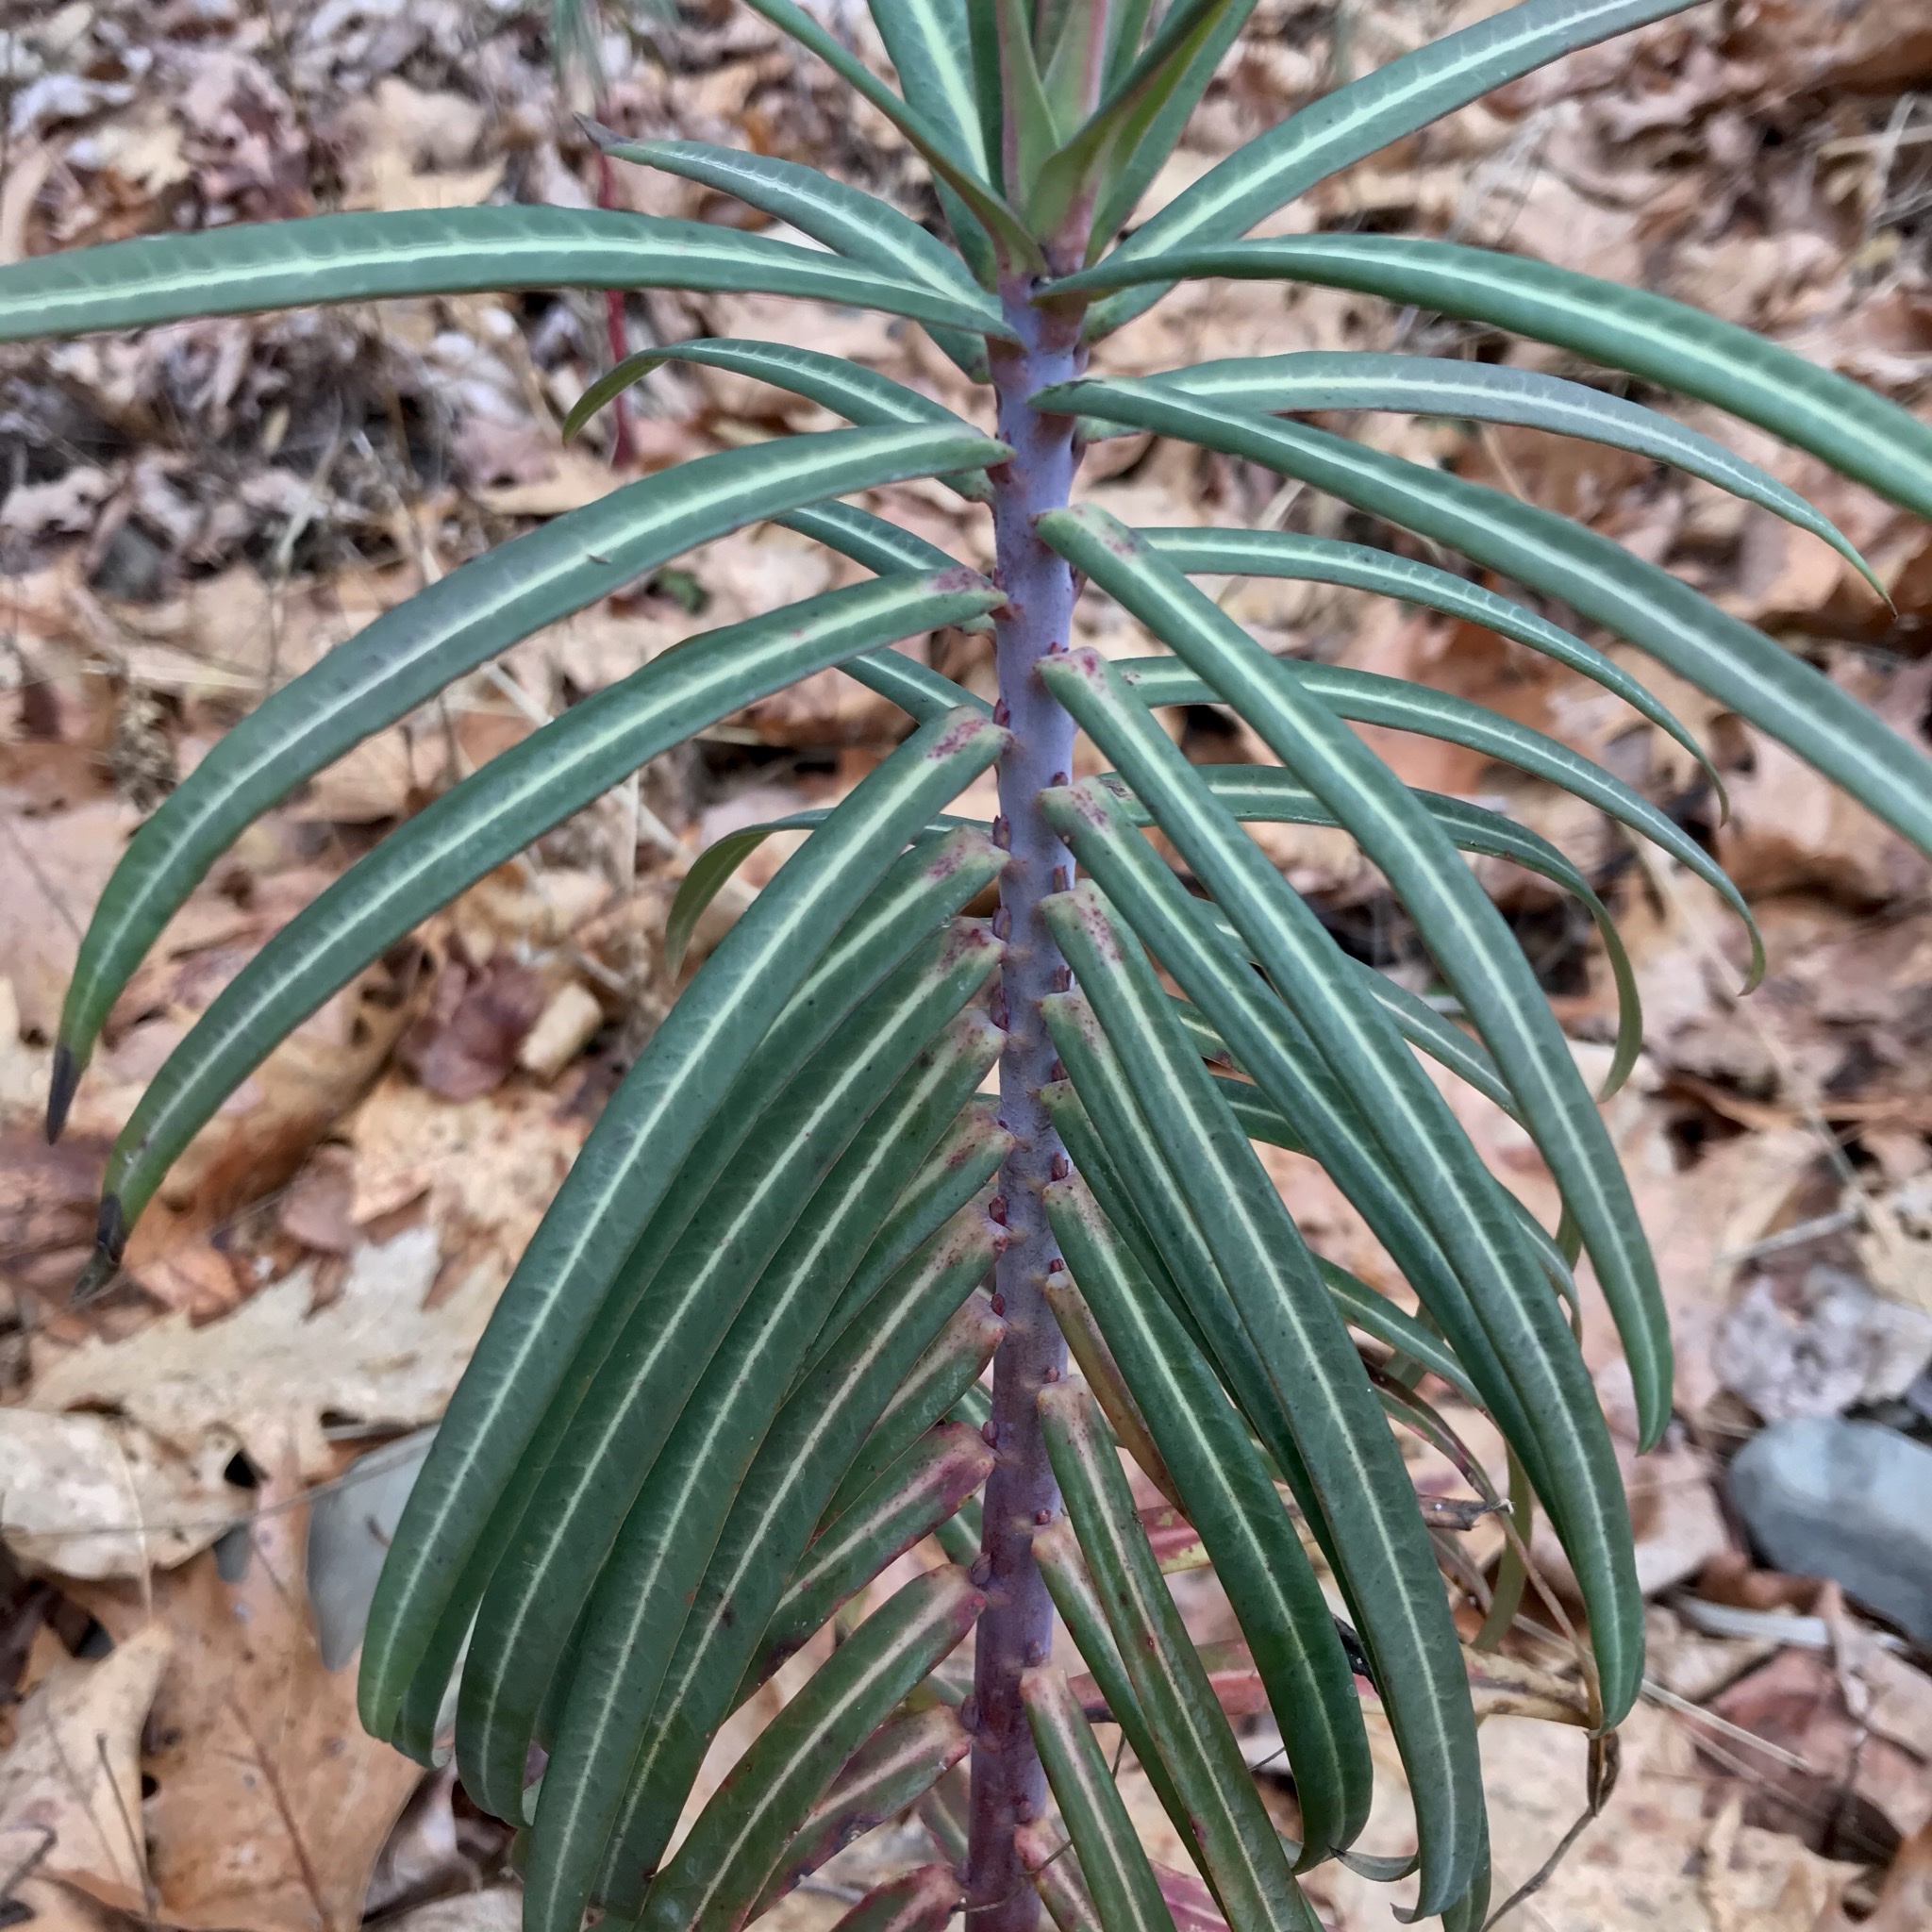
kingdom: Plantae
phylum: Tracheophyta
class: Magnoliopsida
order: Malpighiales
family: Euphorbiaceae
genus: Euphorbia
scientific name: Euphorbia lathyris
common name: Caper spurge
